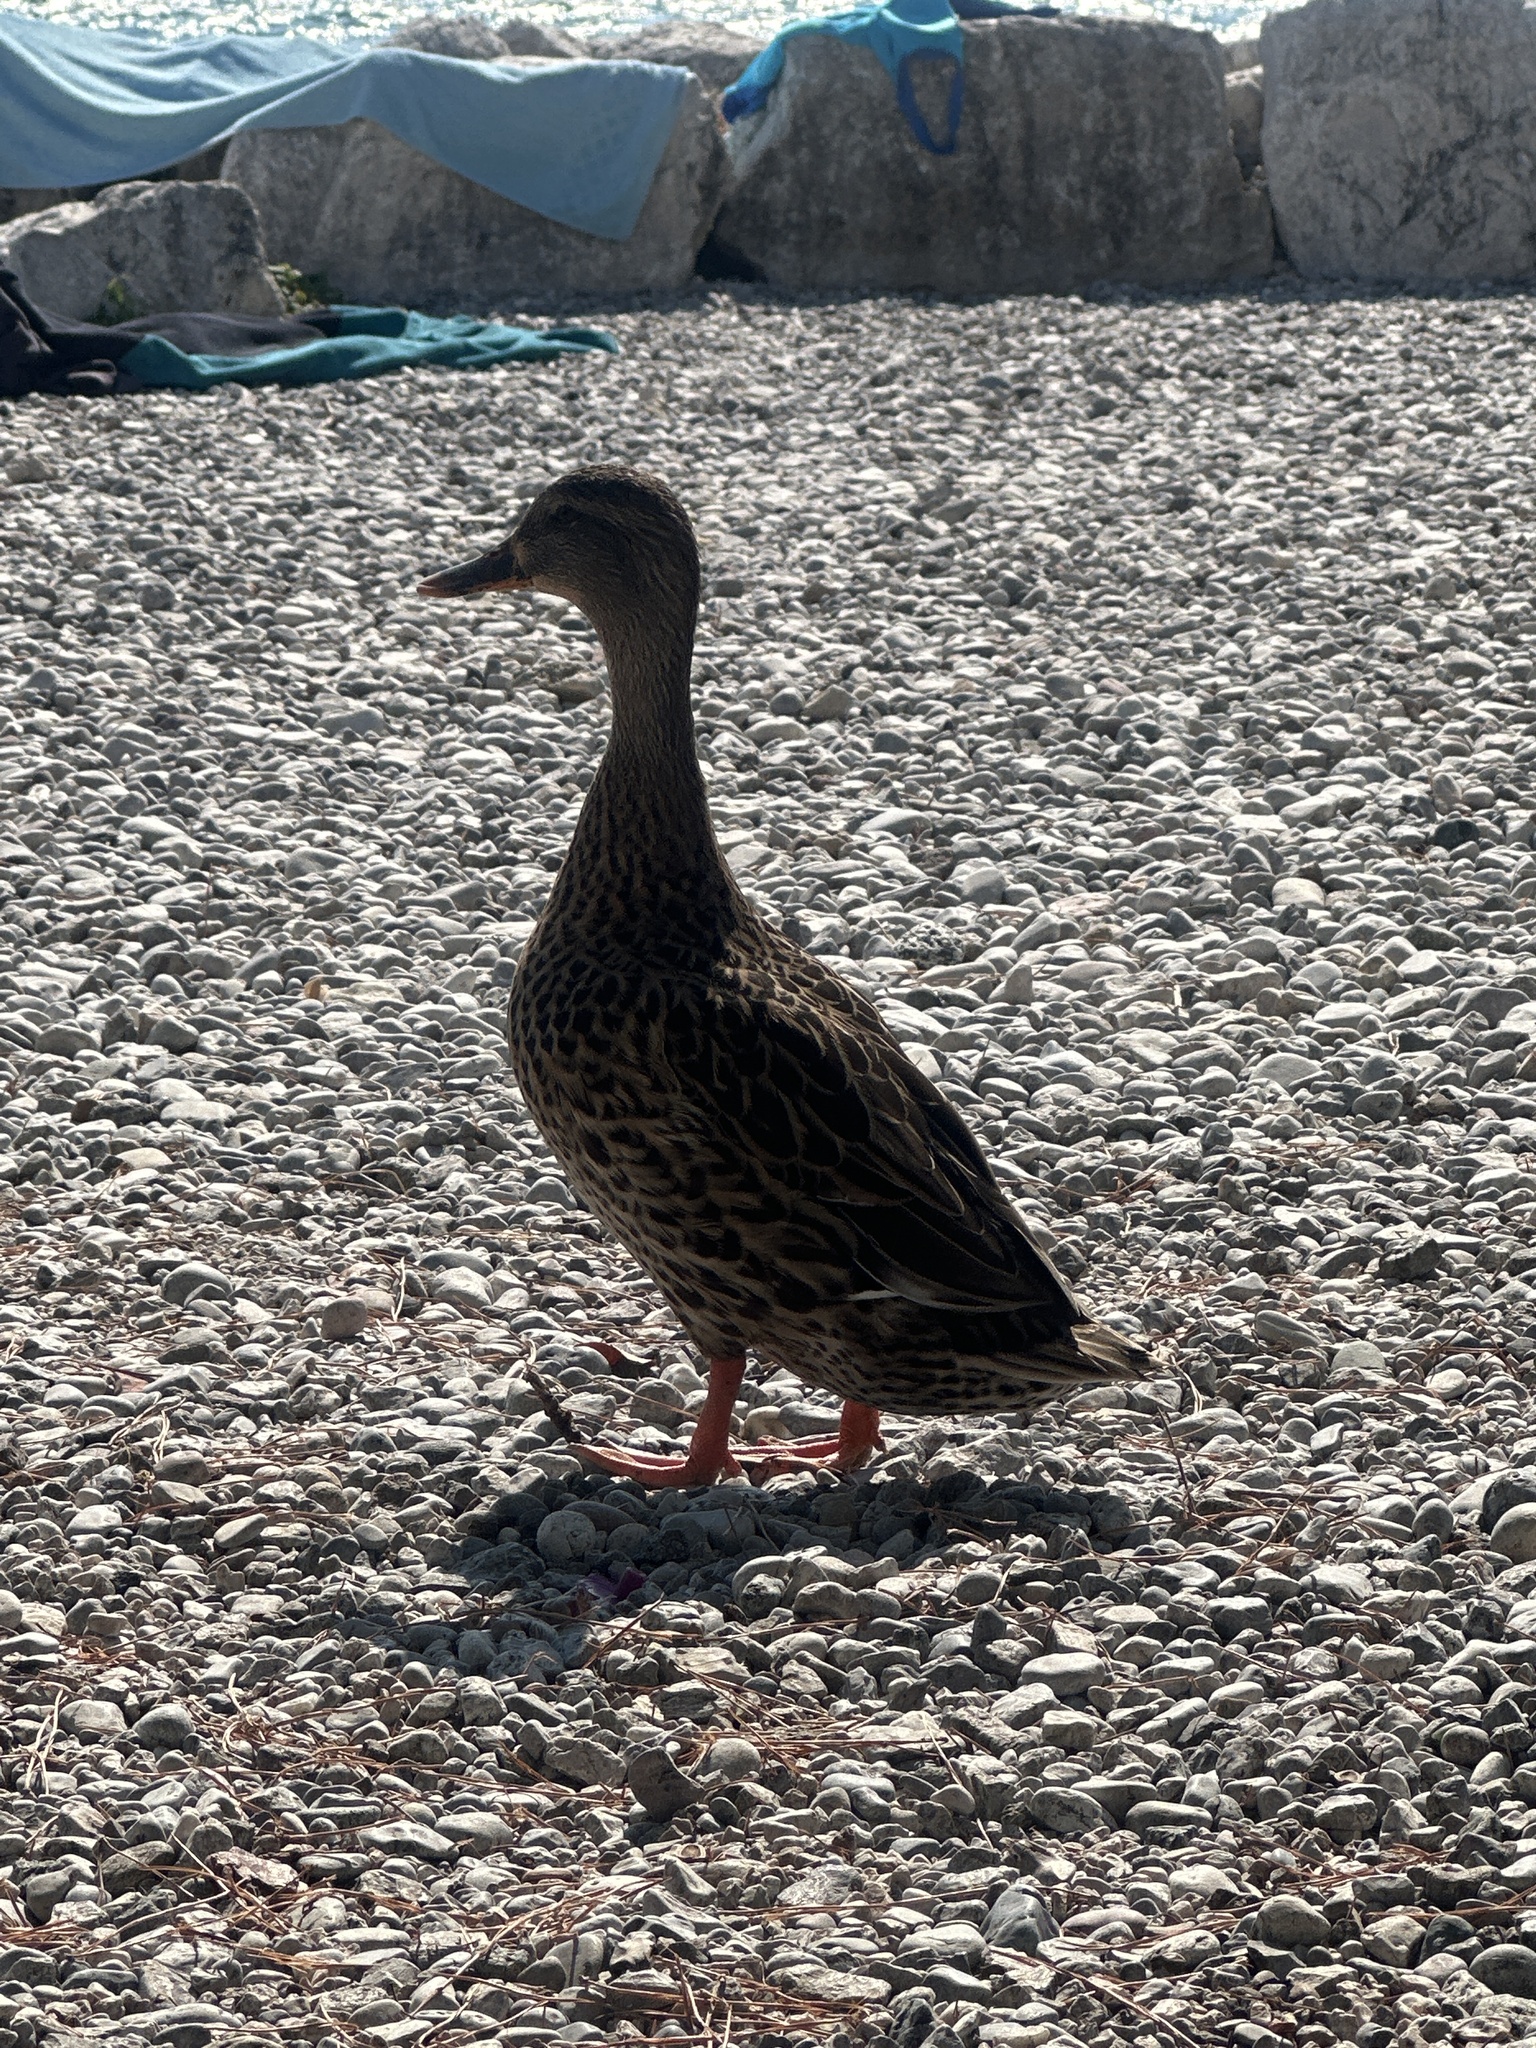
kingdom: Animalia
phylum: Chordata
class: Aves
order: Anseriformes
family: Anatidae
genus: Anas
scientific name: Anas platyrhynchos
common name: Mallard
